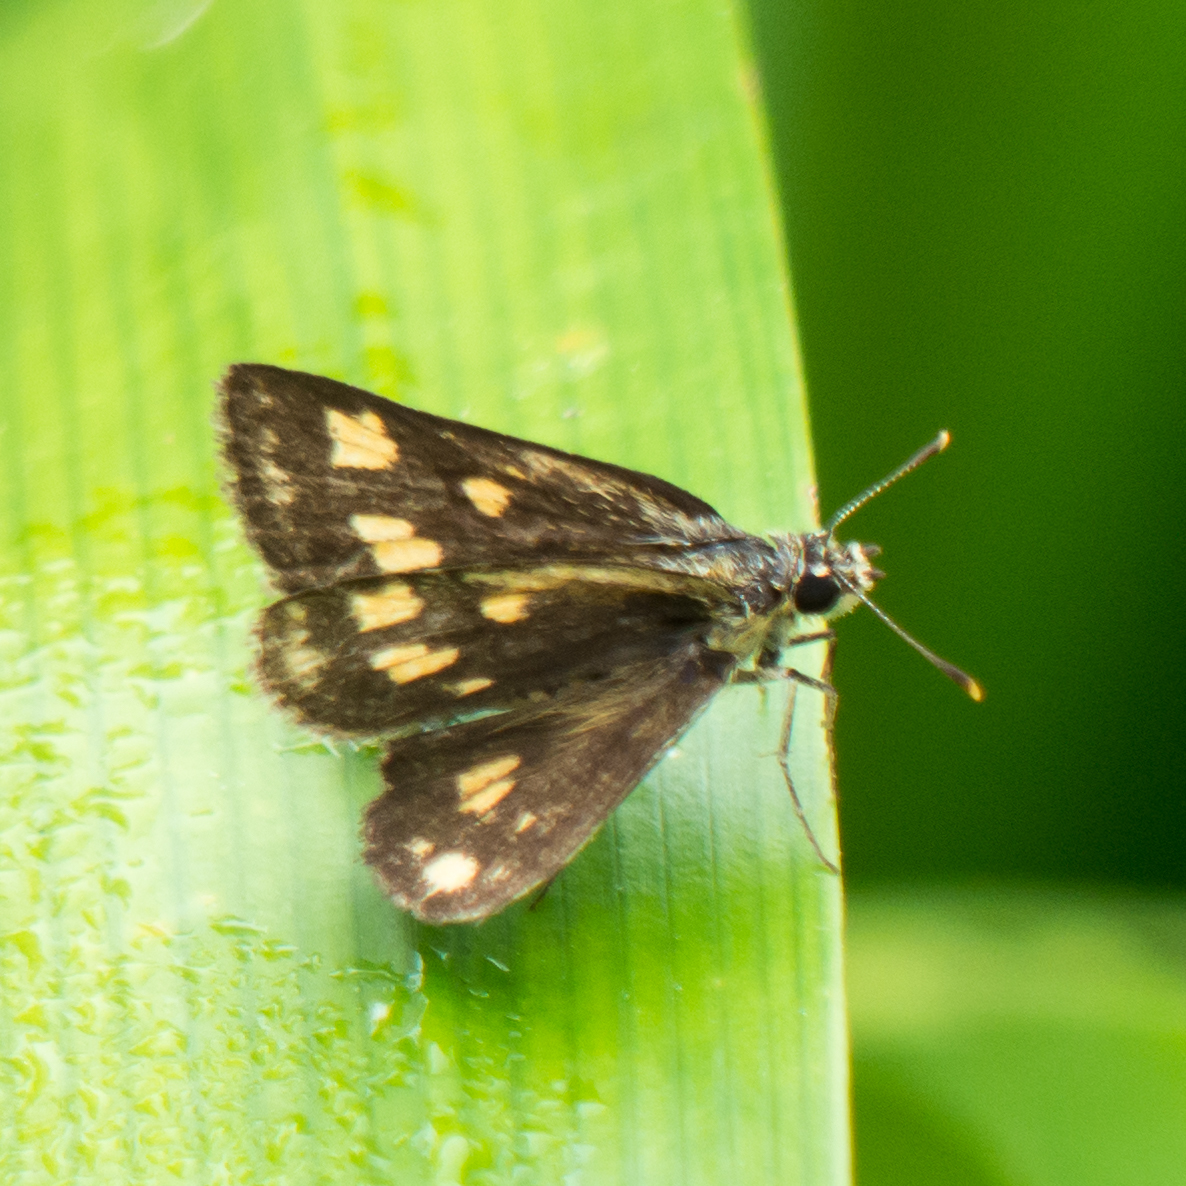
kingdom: Animalia
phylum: Arthropoda
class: Insecta
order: Lepidoptera
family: Hesperiidae
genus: Ampittia
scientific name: Ampittia dioscorides
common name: Common bush hopper
